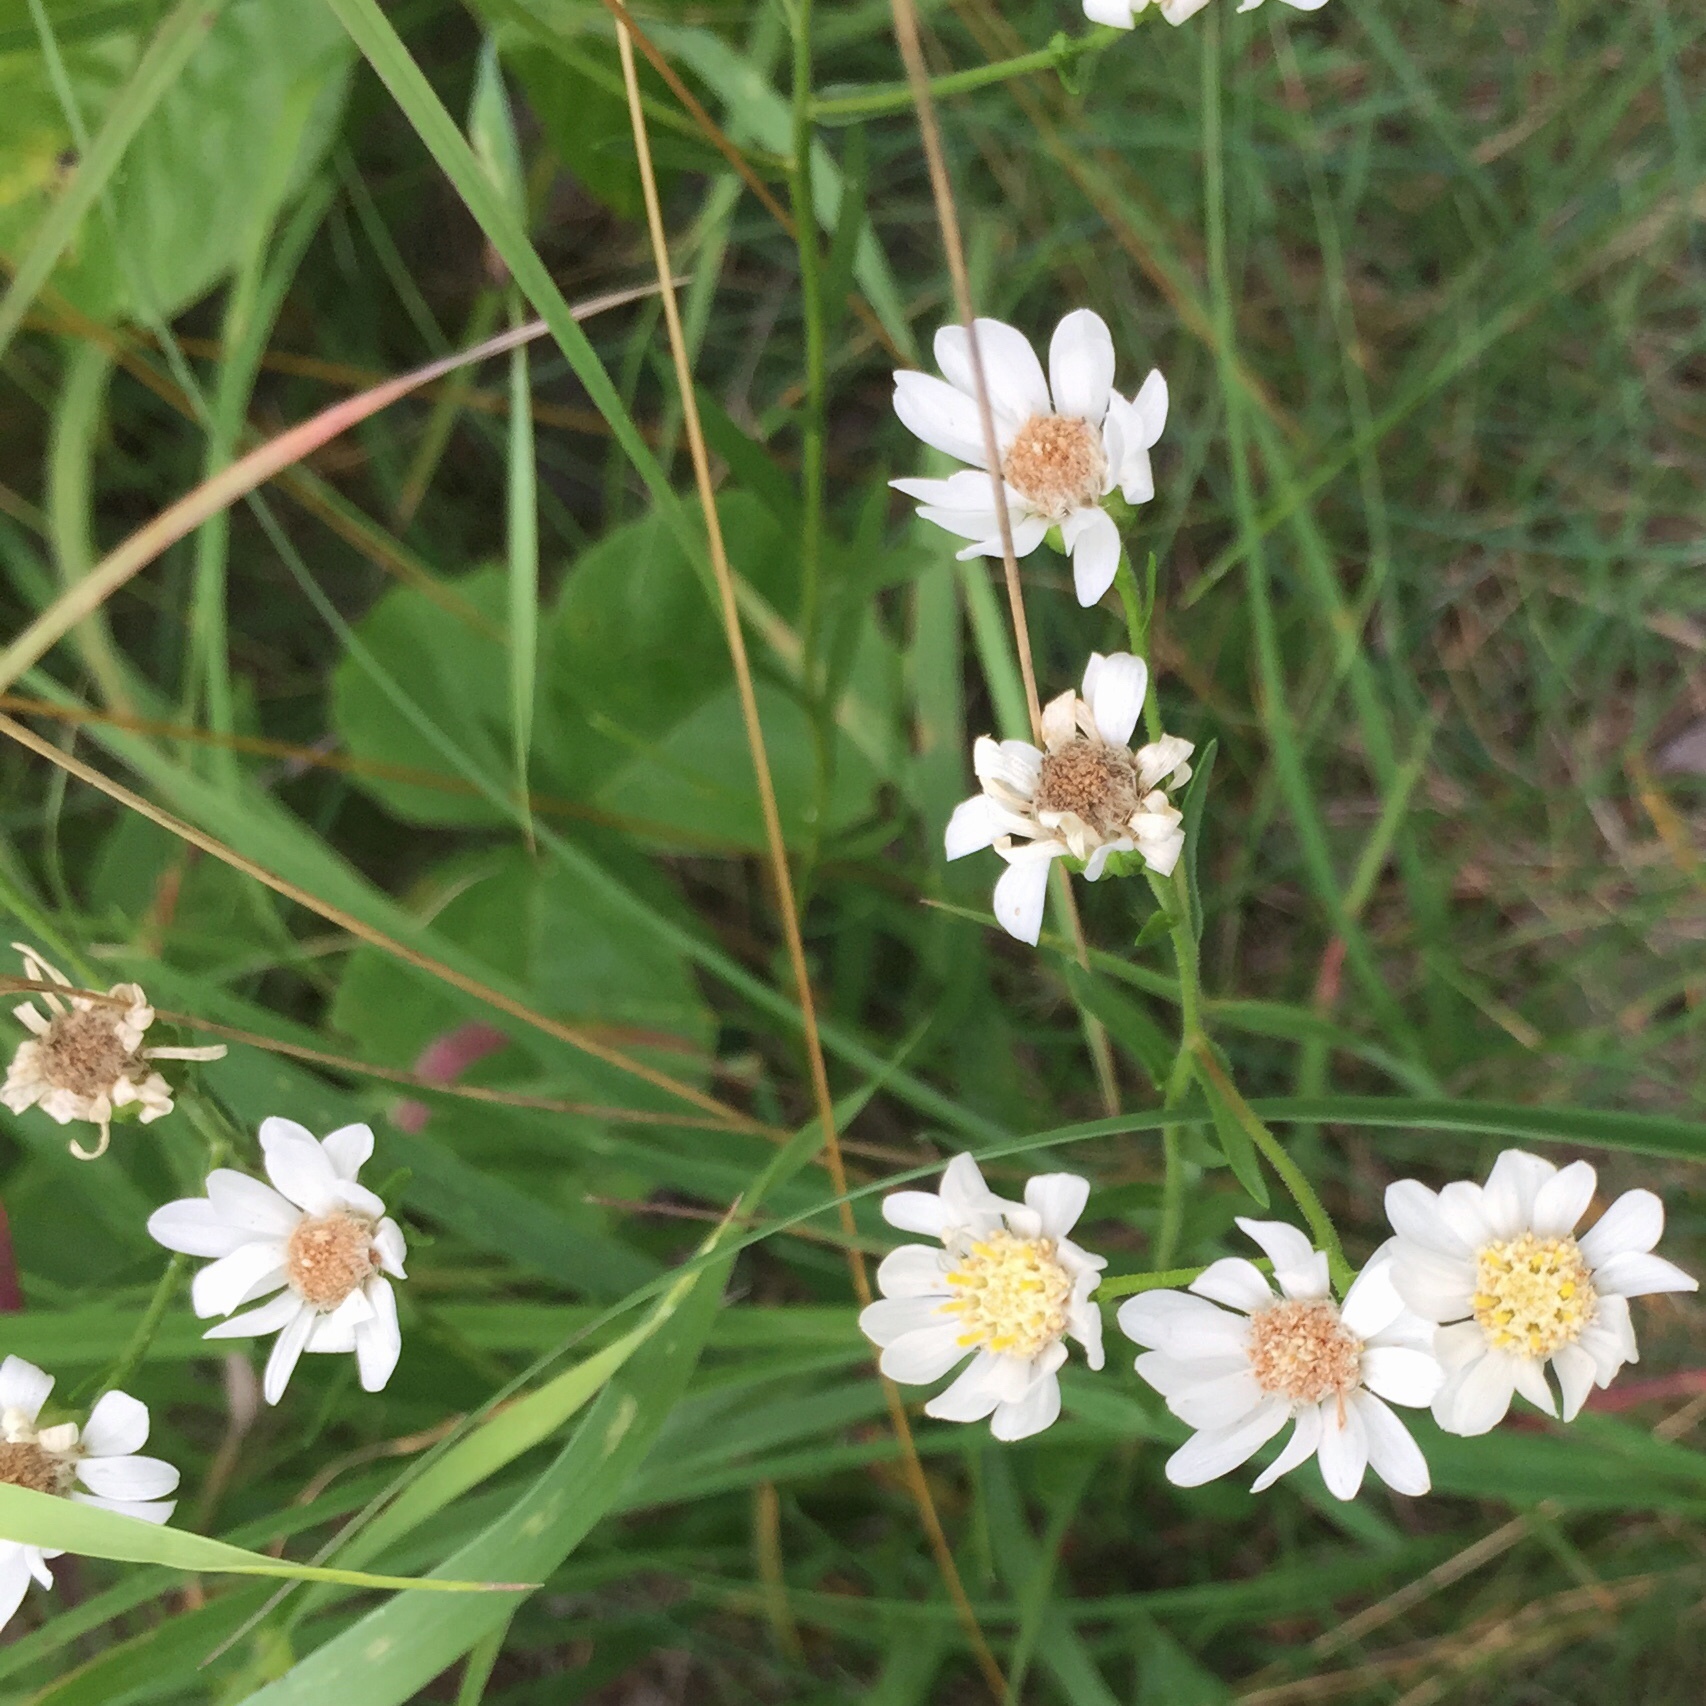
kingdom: Plantae
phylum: Tracheophyta
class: Magnoliopsida
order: Asterales
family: Asteraceae
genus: Solidago
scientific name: Solidago ptarmicoides
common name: White flat-top goldenrod
